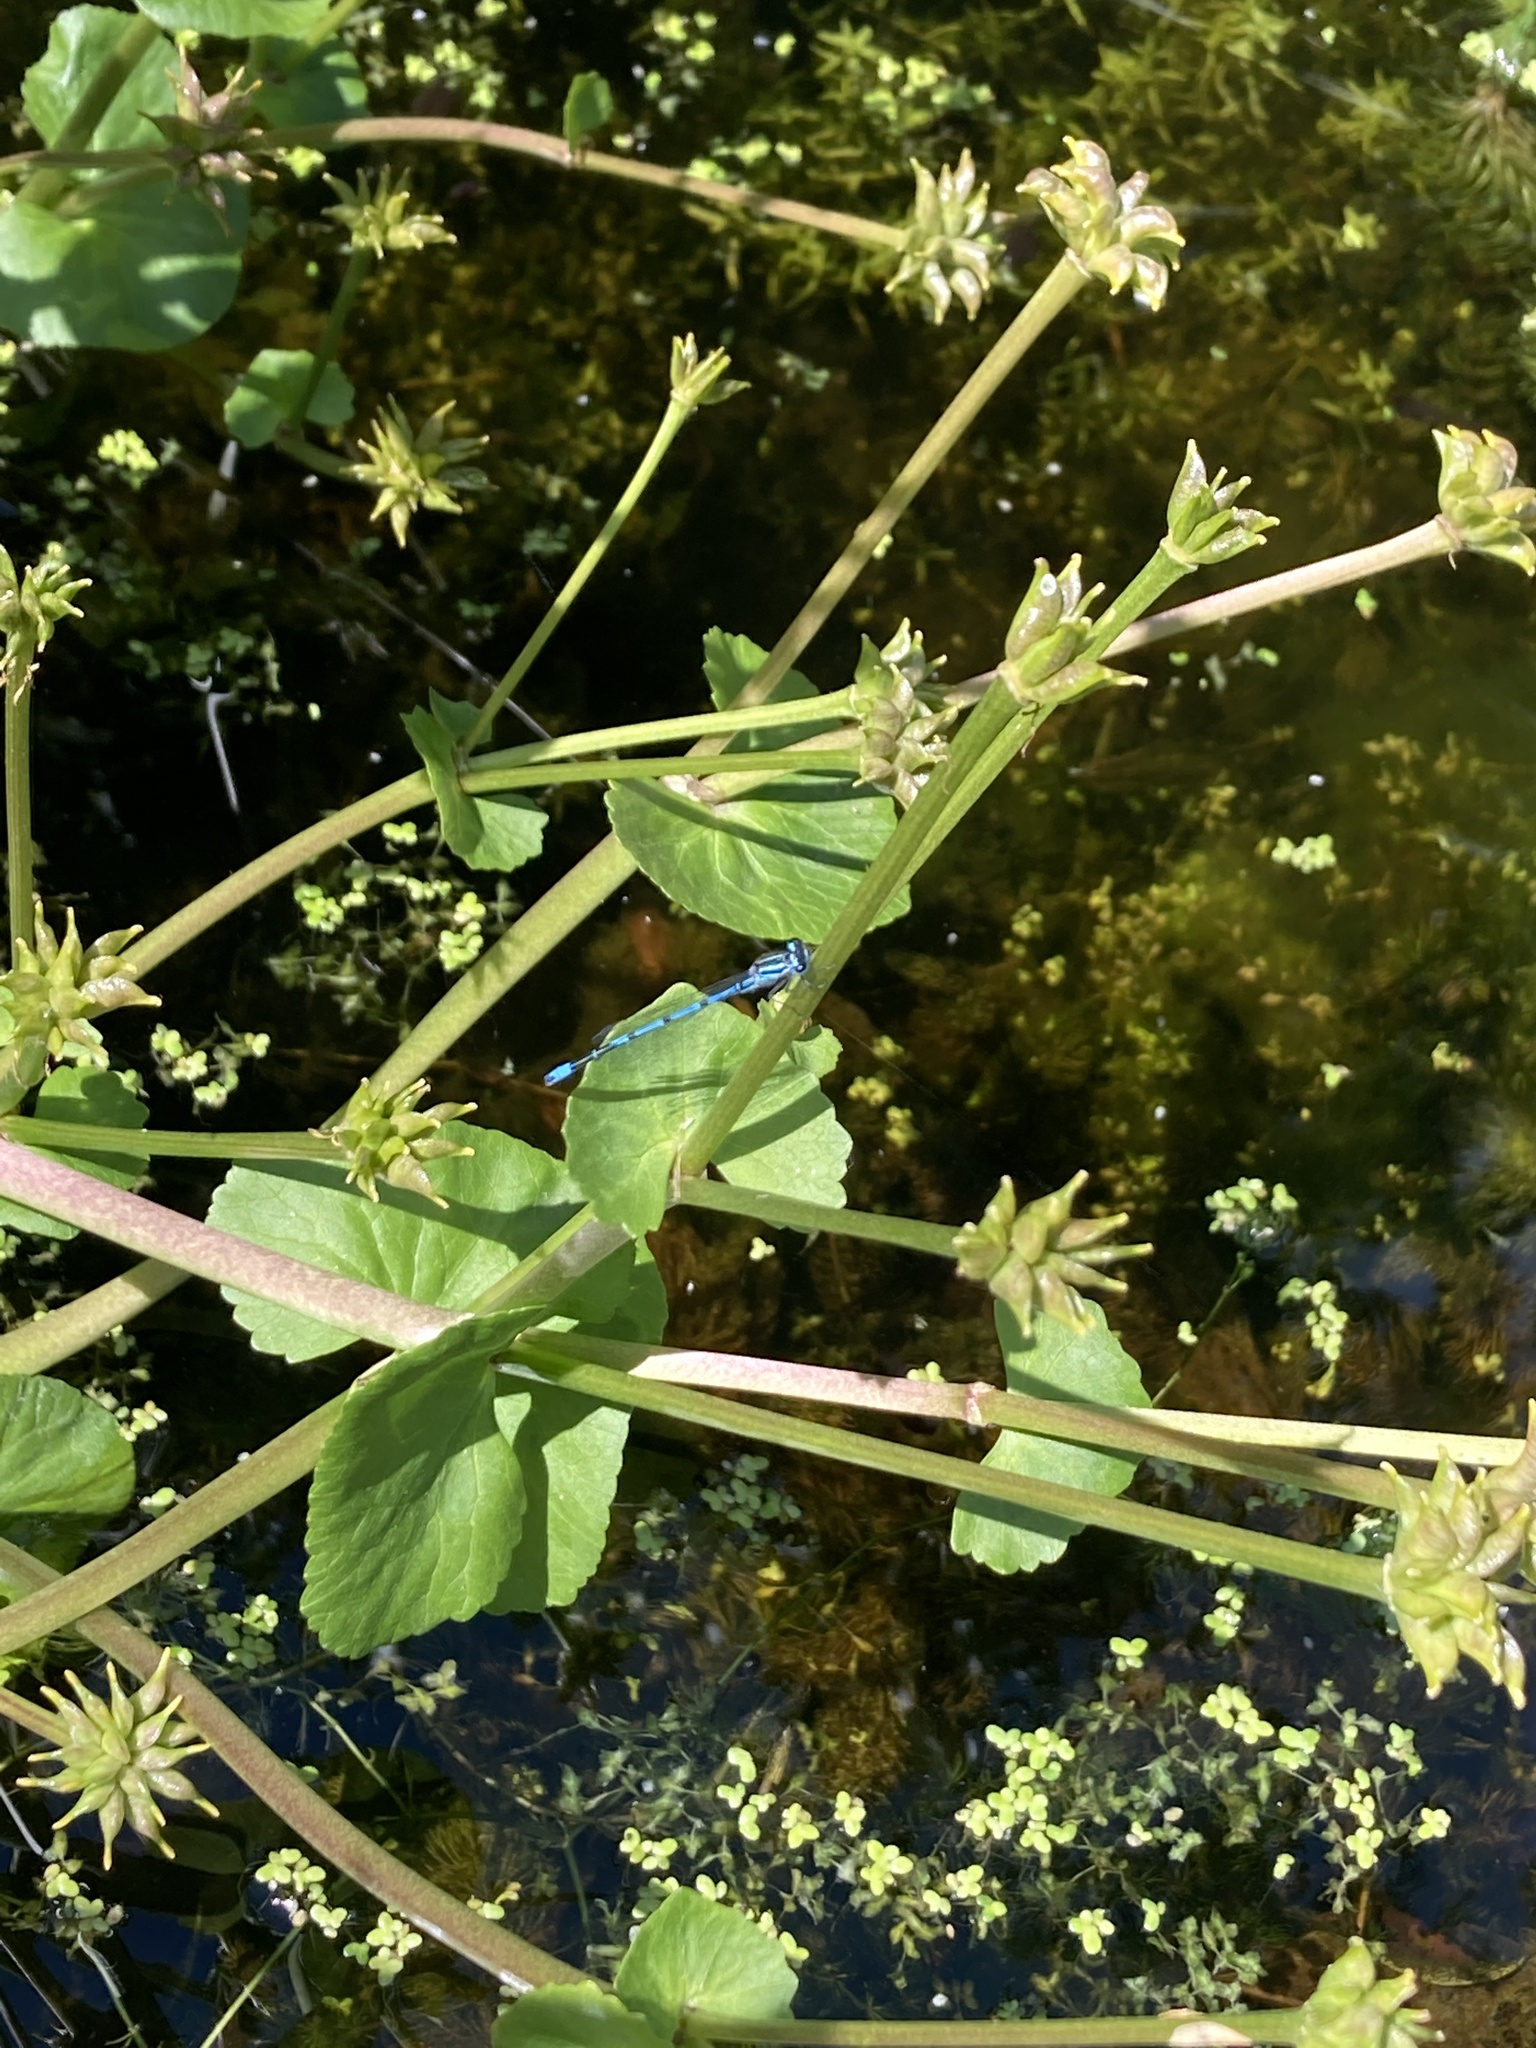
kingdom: Animalia
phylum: Arthropoda
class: Insecta
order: Odonata
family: Coenagrionidae
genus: Coenagrion
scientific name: Coenagrion puella
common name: Azure damselfly
